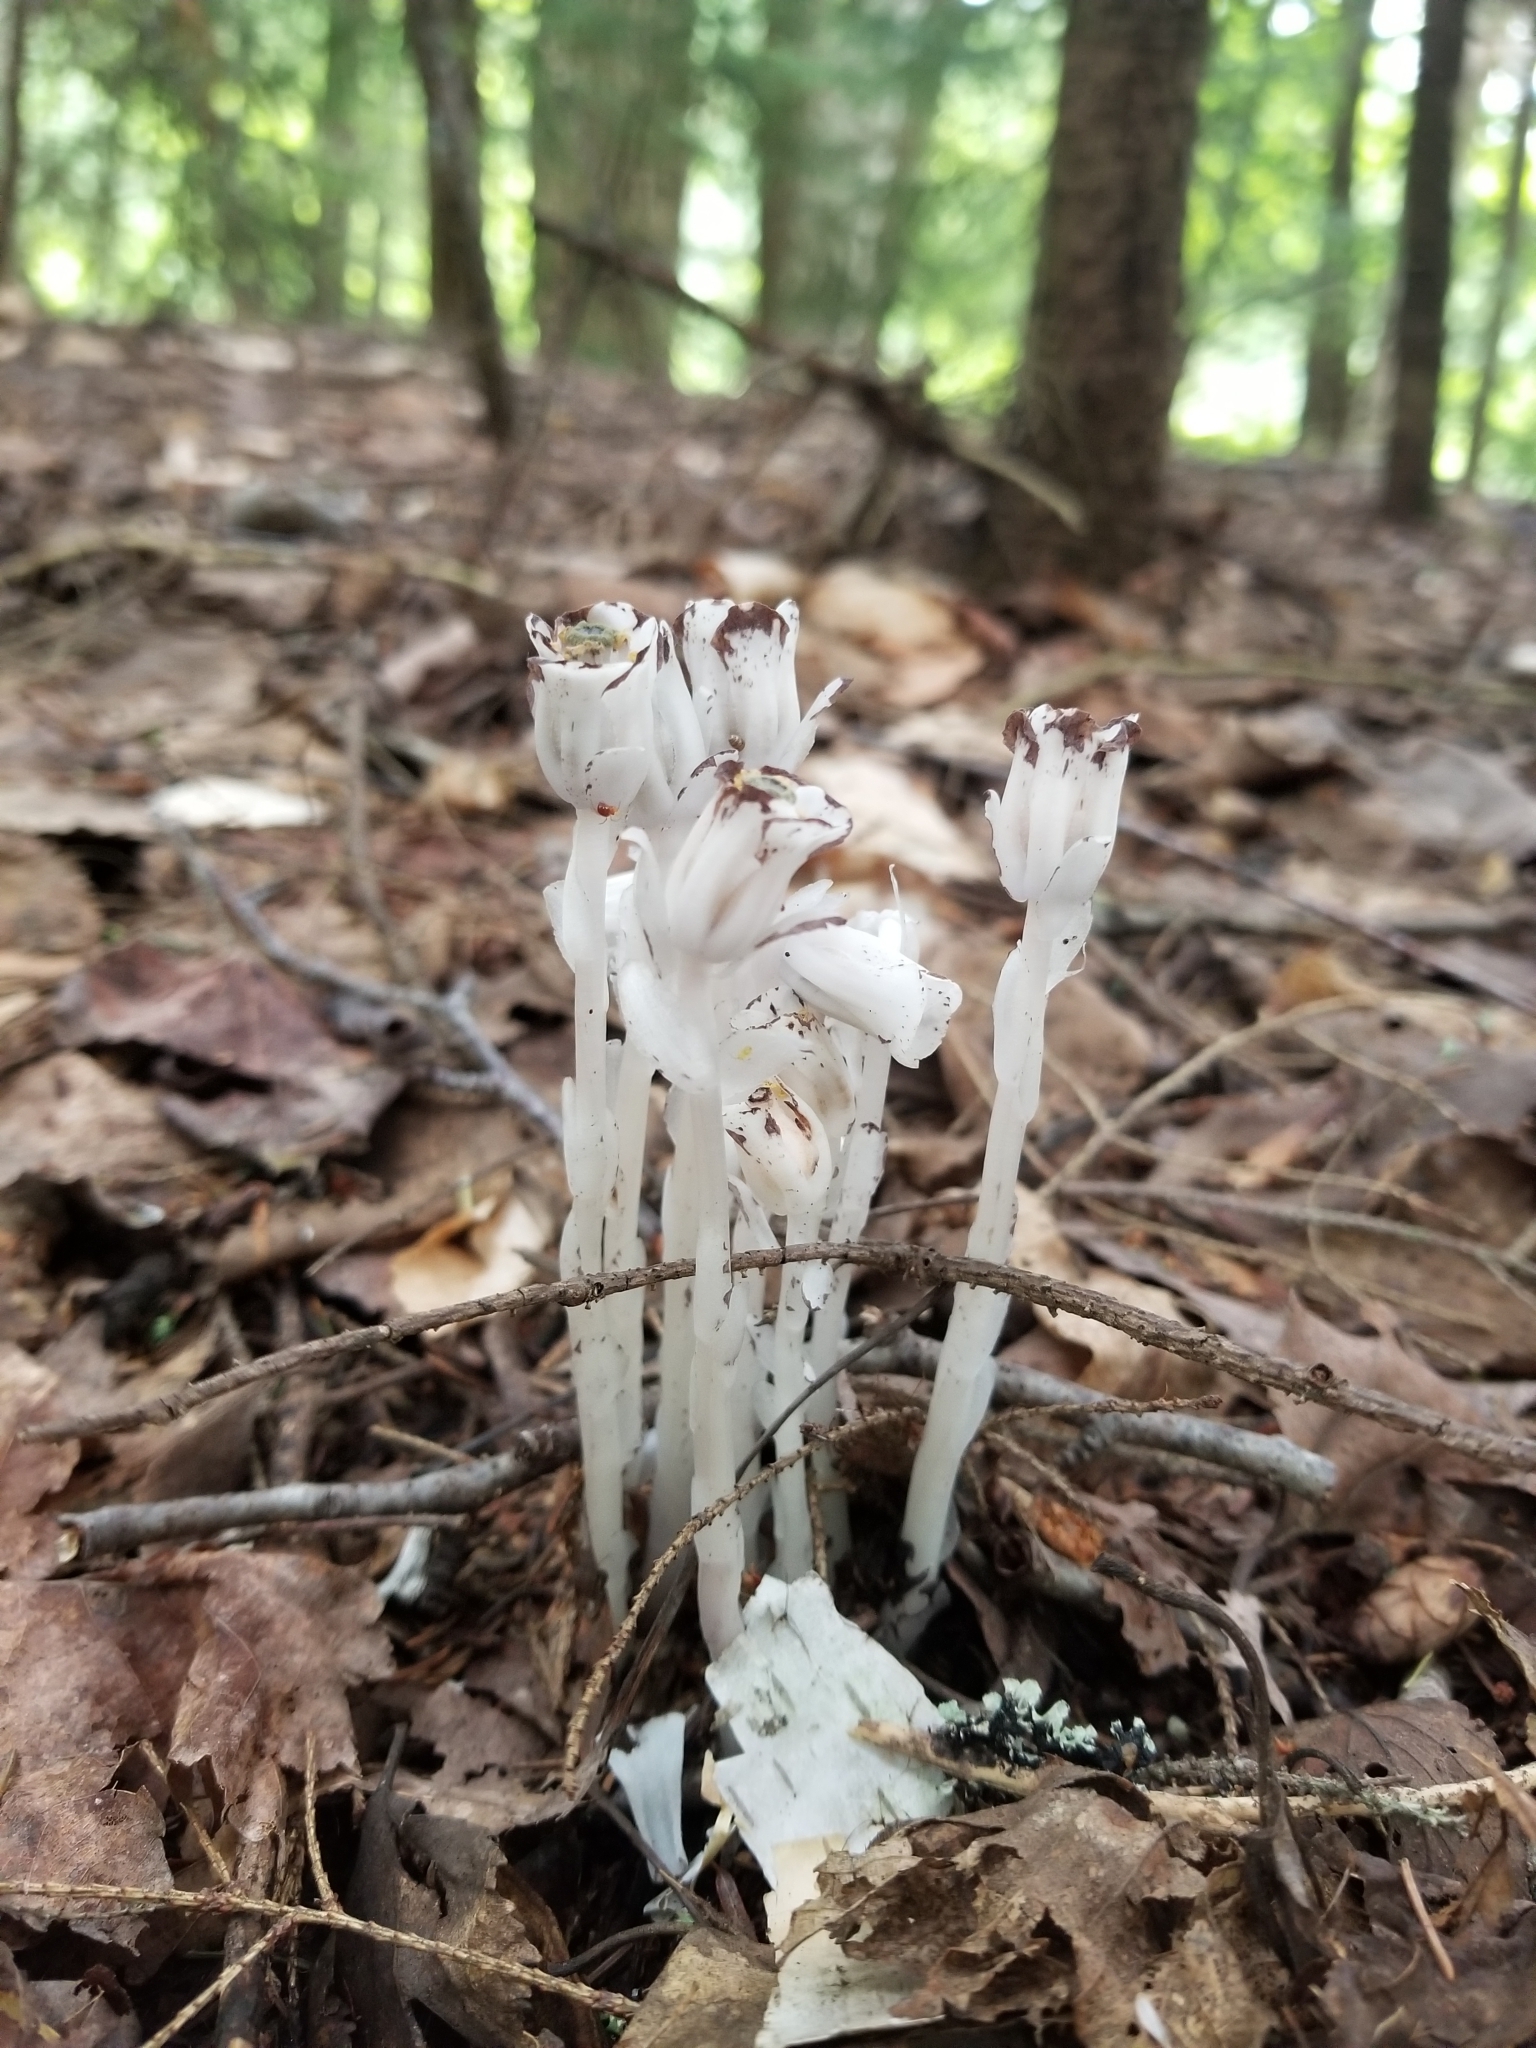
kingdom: Plantae
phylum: Tracheophyta
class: Magnoliopsida
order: Ericales
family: Ericaceae
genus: Monotropa
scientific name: Monotropa uniflora
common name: Convulsion root
